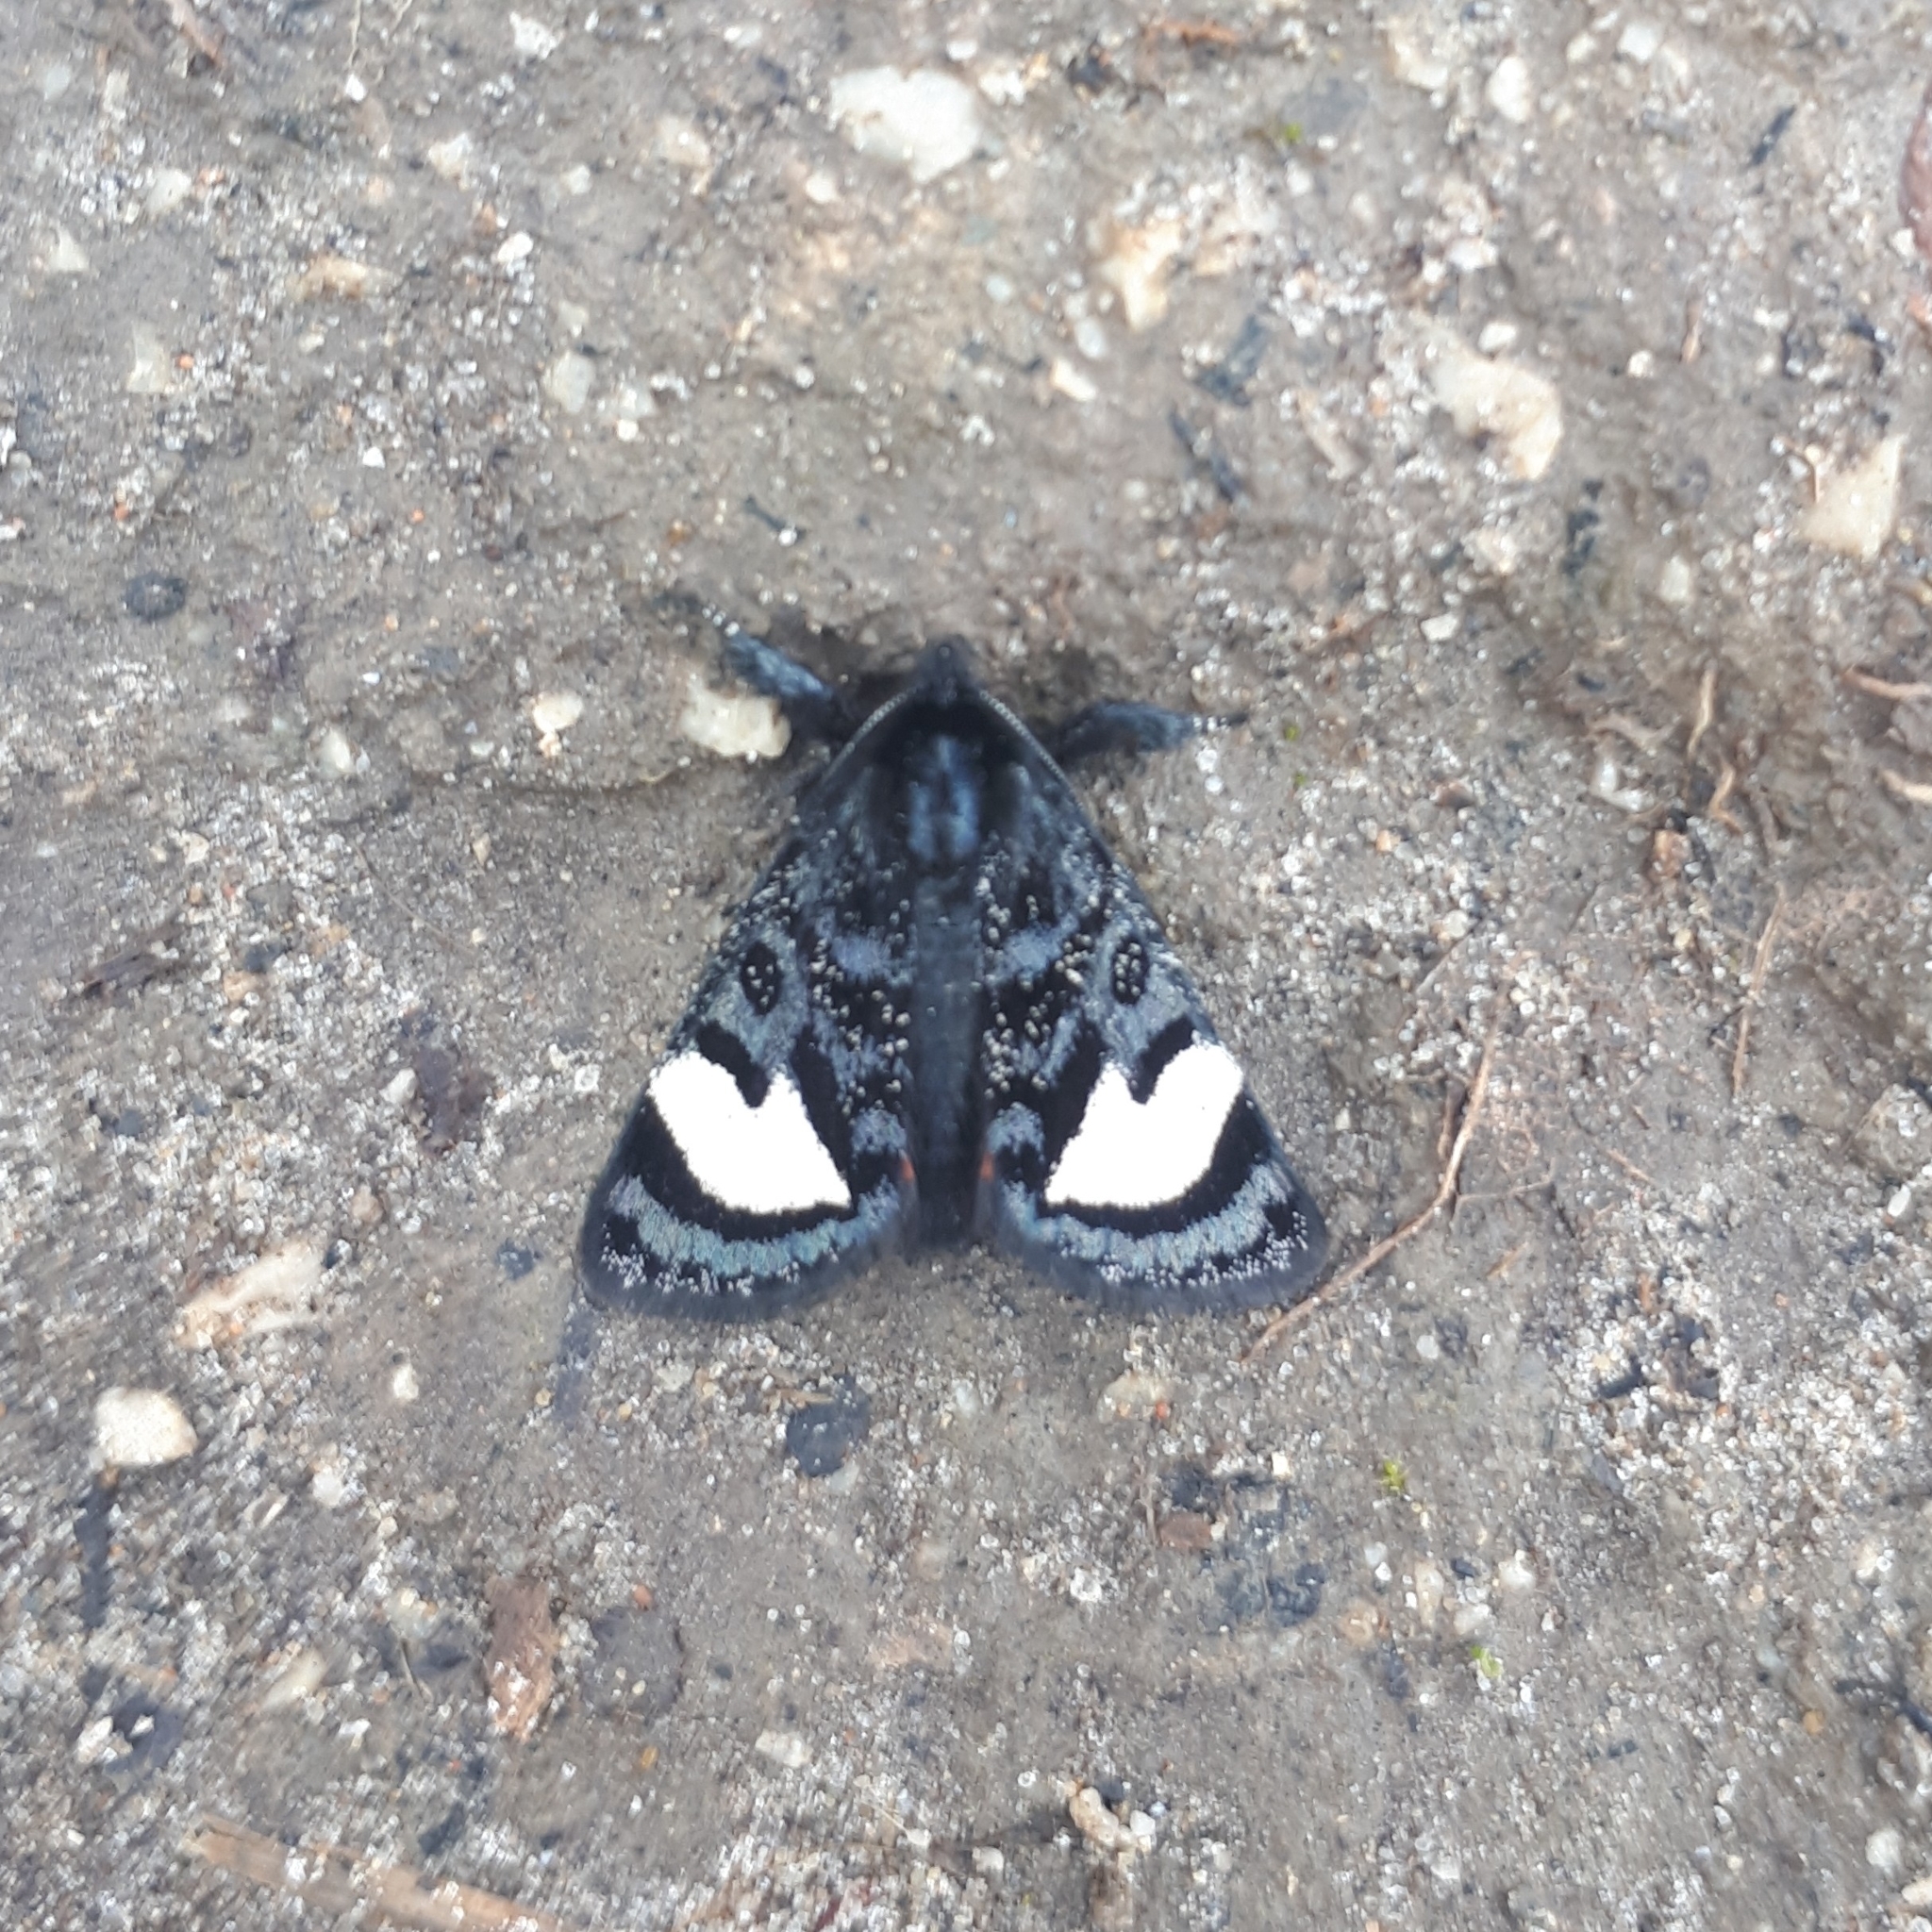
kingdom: Animalia
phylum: Arthropoda
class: Insecta
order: Lepidoptera
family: Noctuidae
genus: Psychomorpha
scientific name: Psychomorpha epimenis
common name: Grapevine epimenis moth
